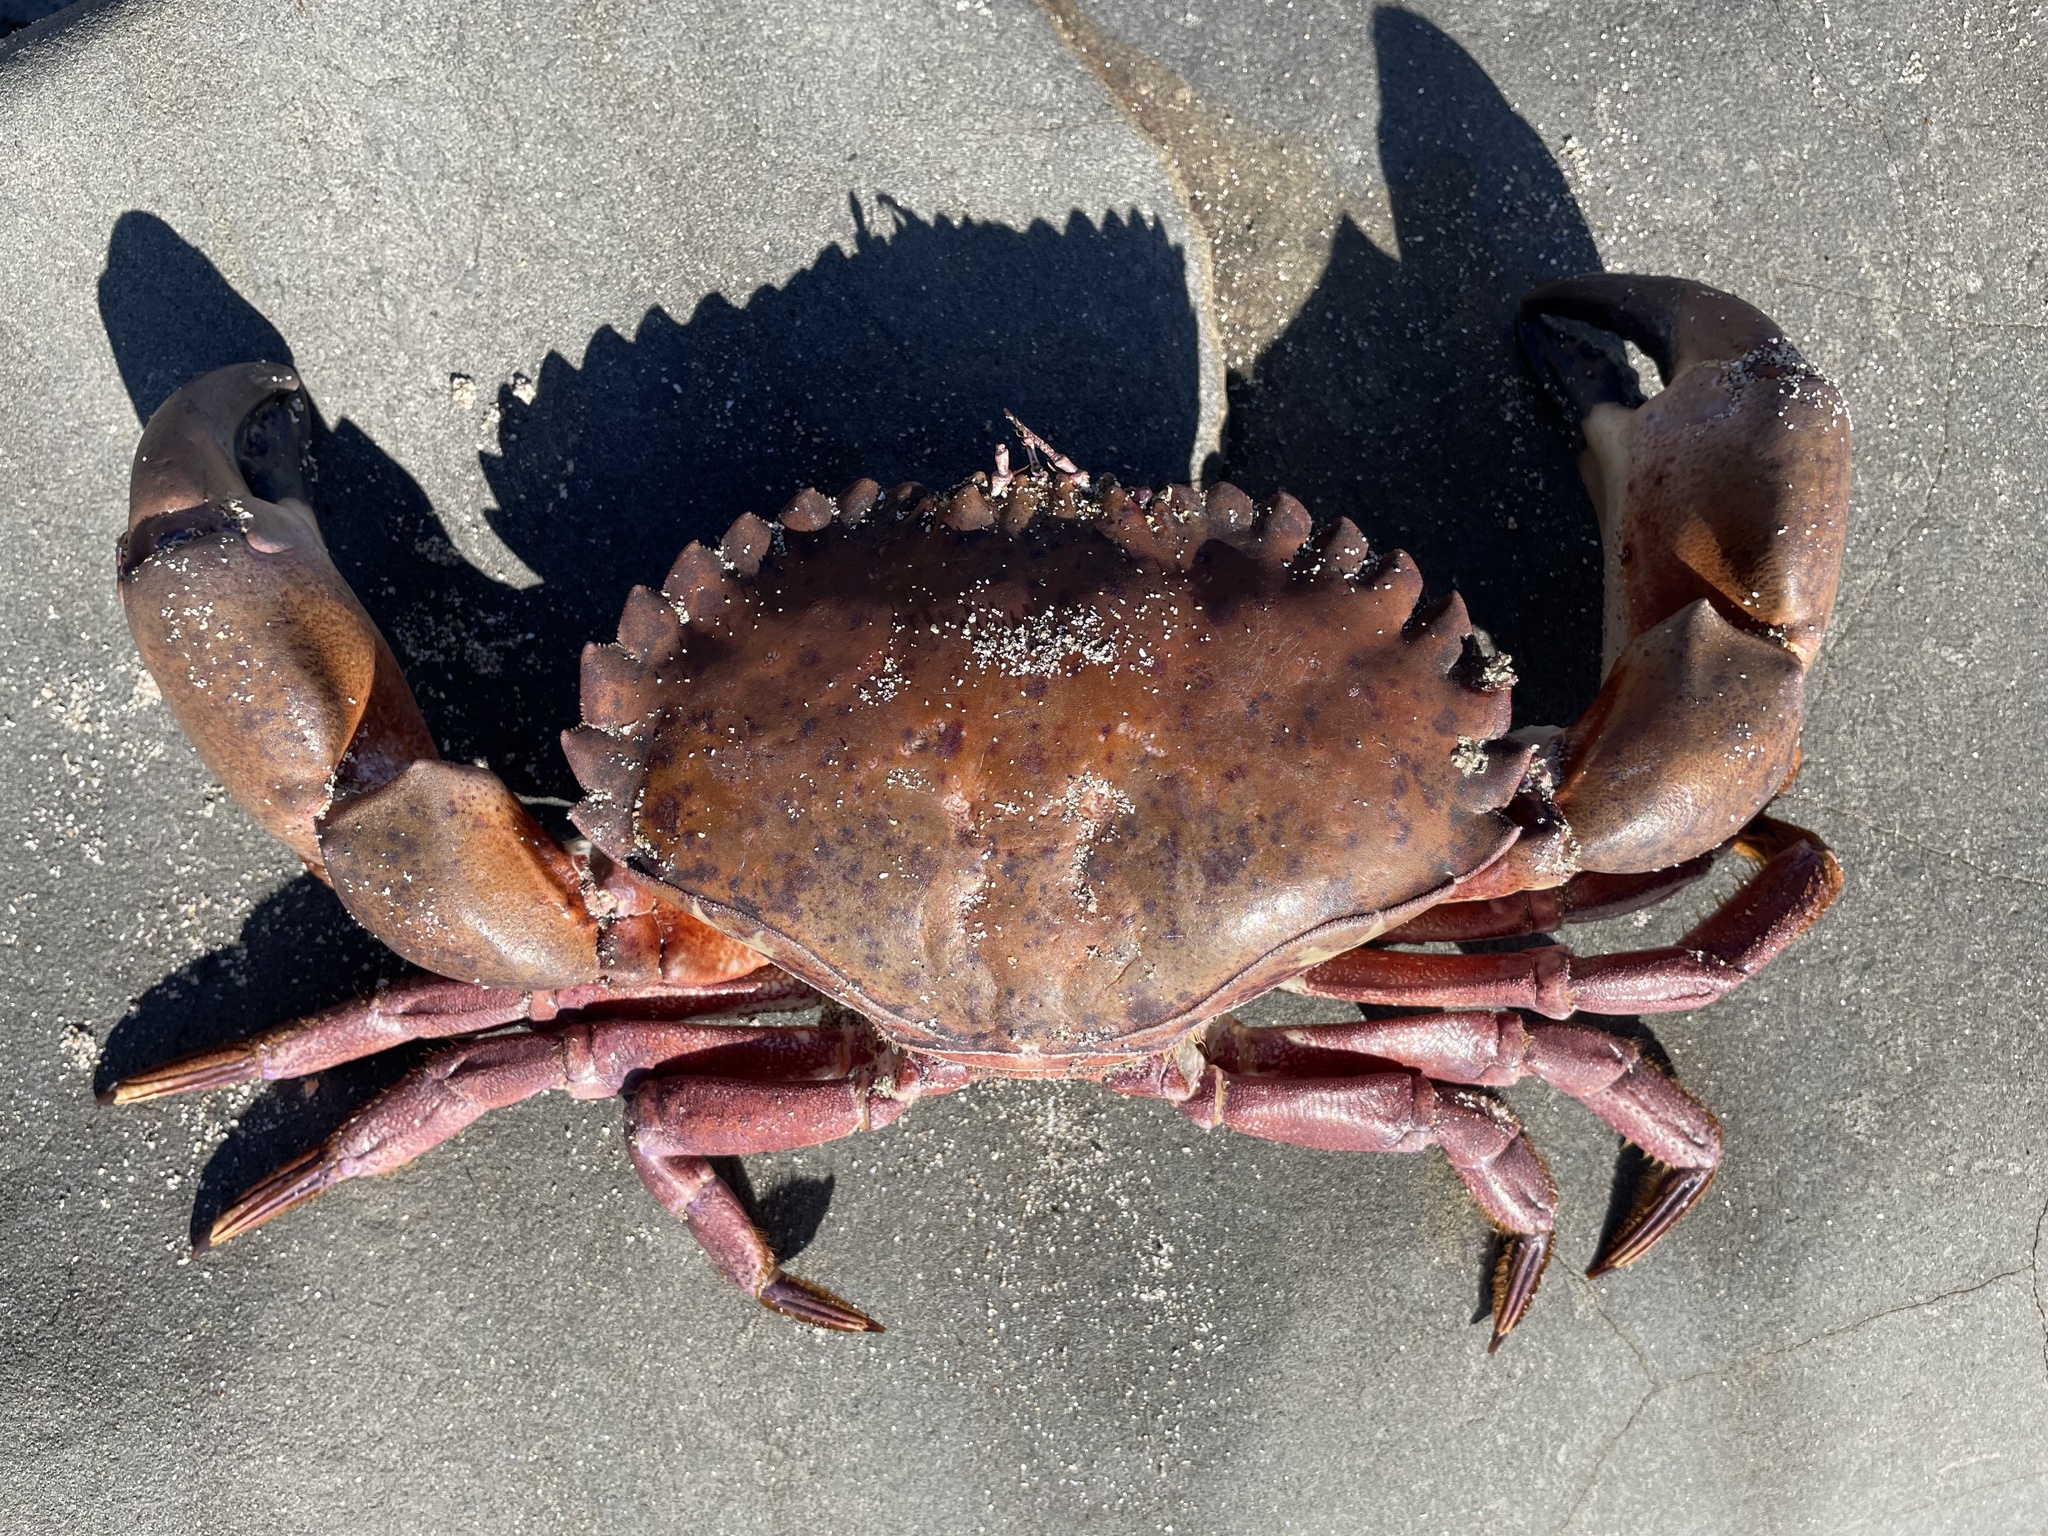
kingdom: Animalia
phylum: Arthropoda
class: Malacostraca
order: Decapoda
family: Cancridae
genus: Romaleon
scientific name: Romaleon antennarium
